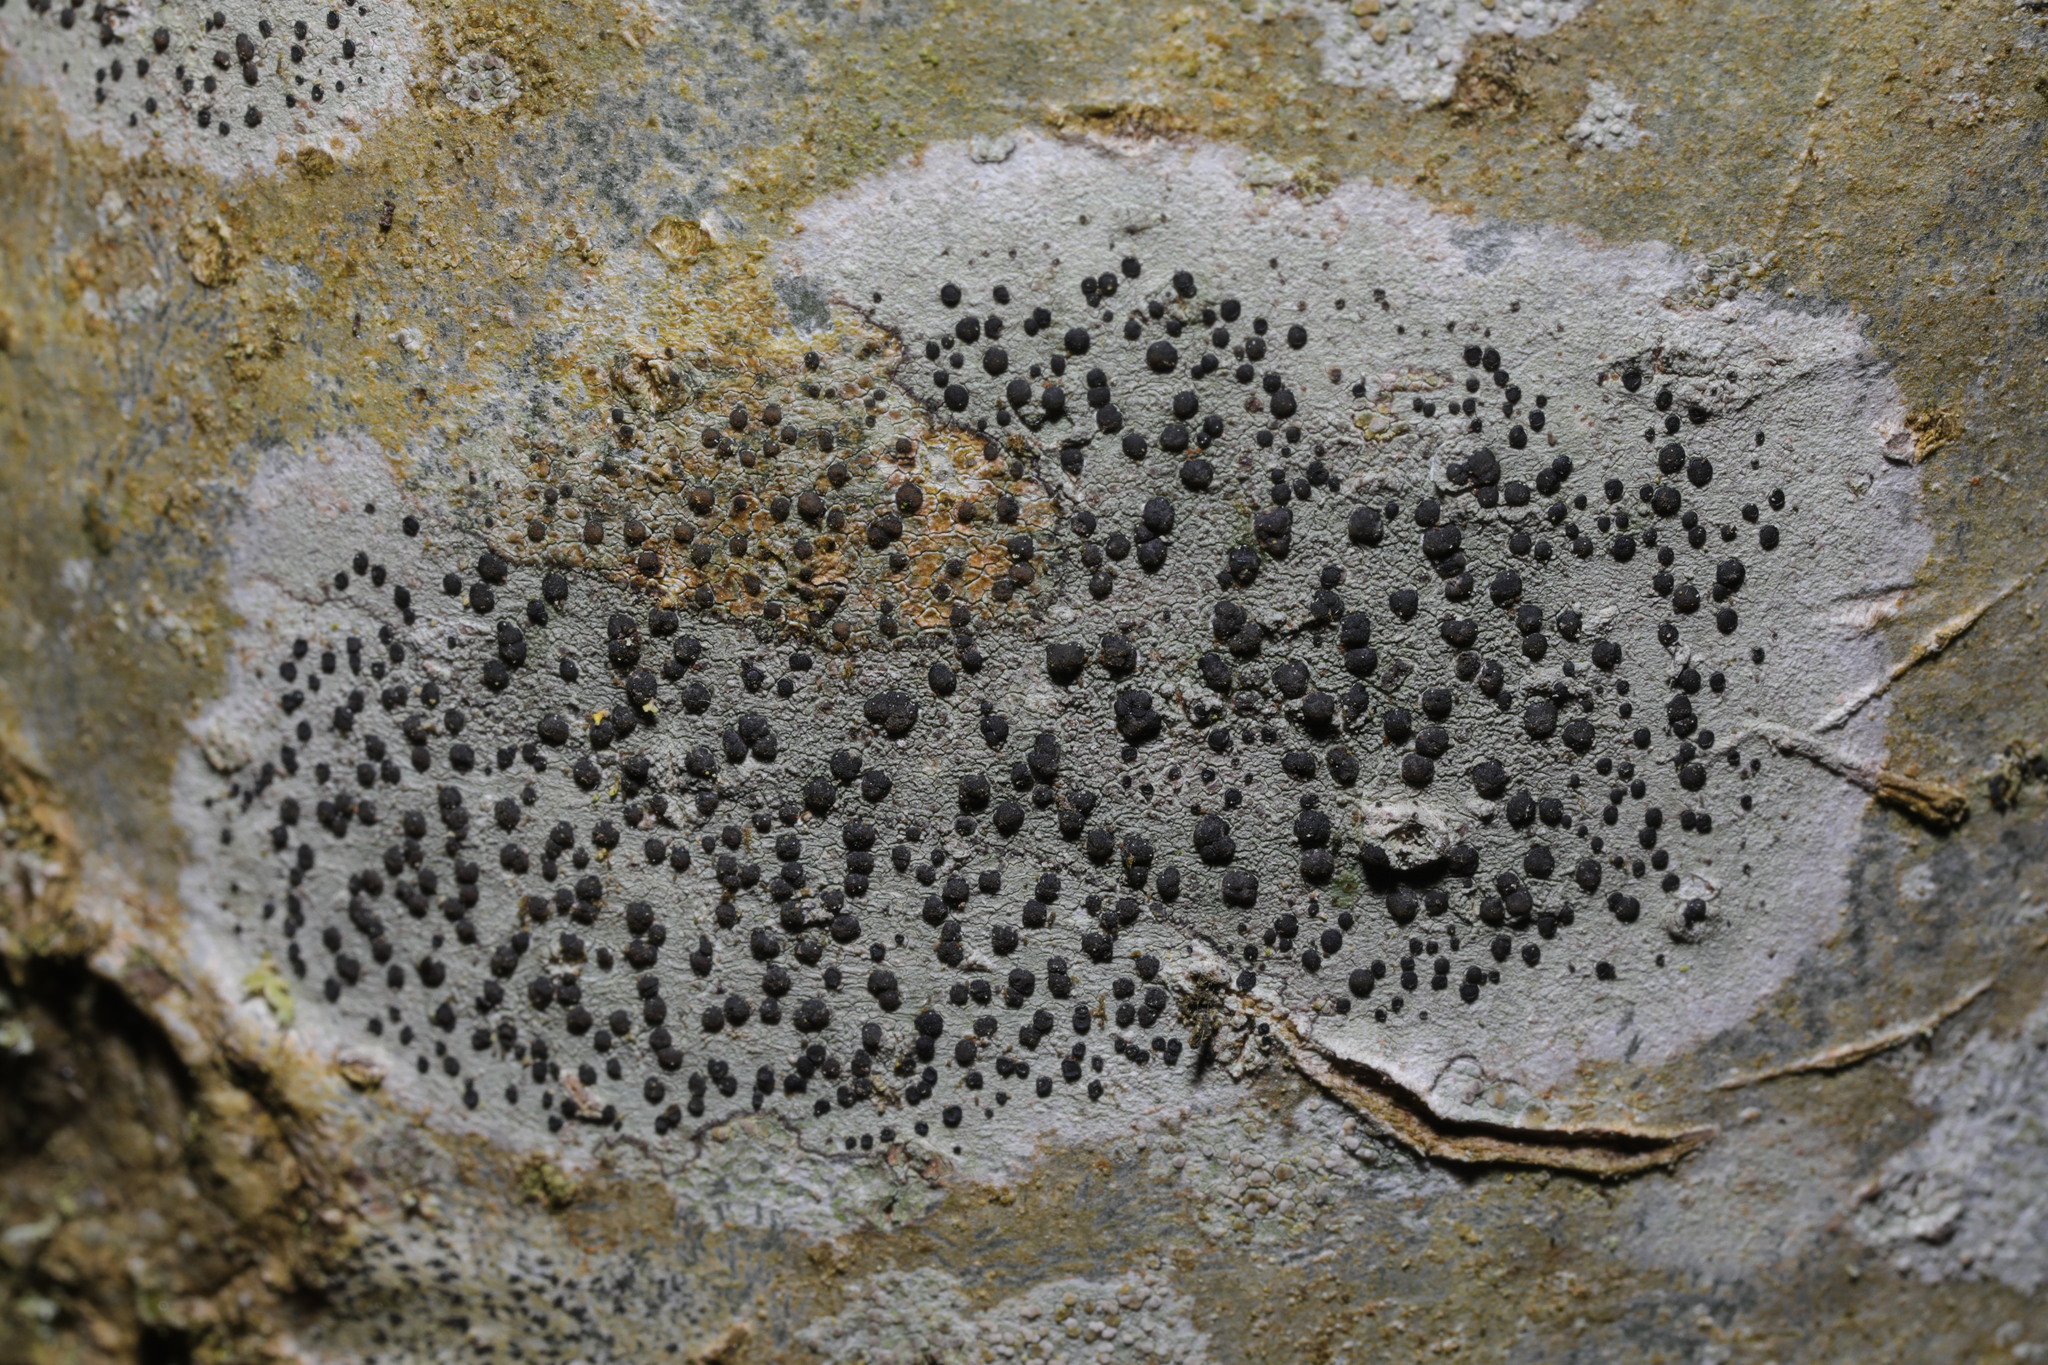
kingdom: Fungi
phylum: Ascomycota
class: Lecanoromycetes
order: Lecanorales
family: Lecanoraceae
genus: Lecidella
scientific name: Lecidella elaeochroma
